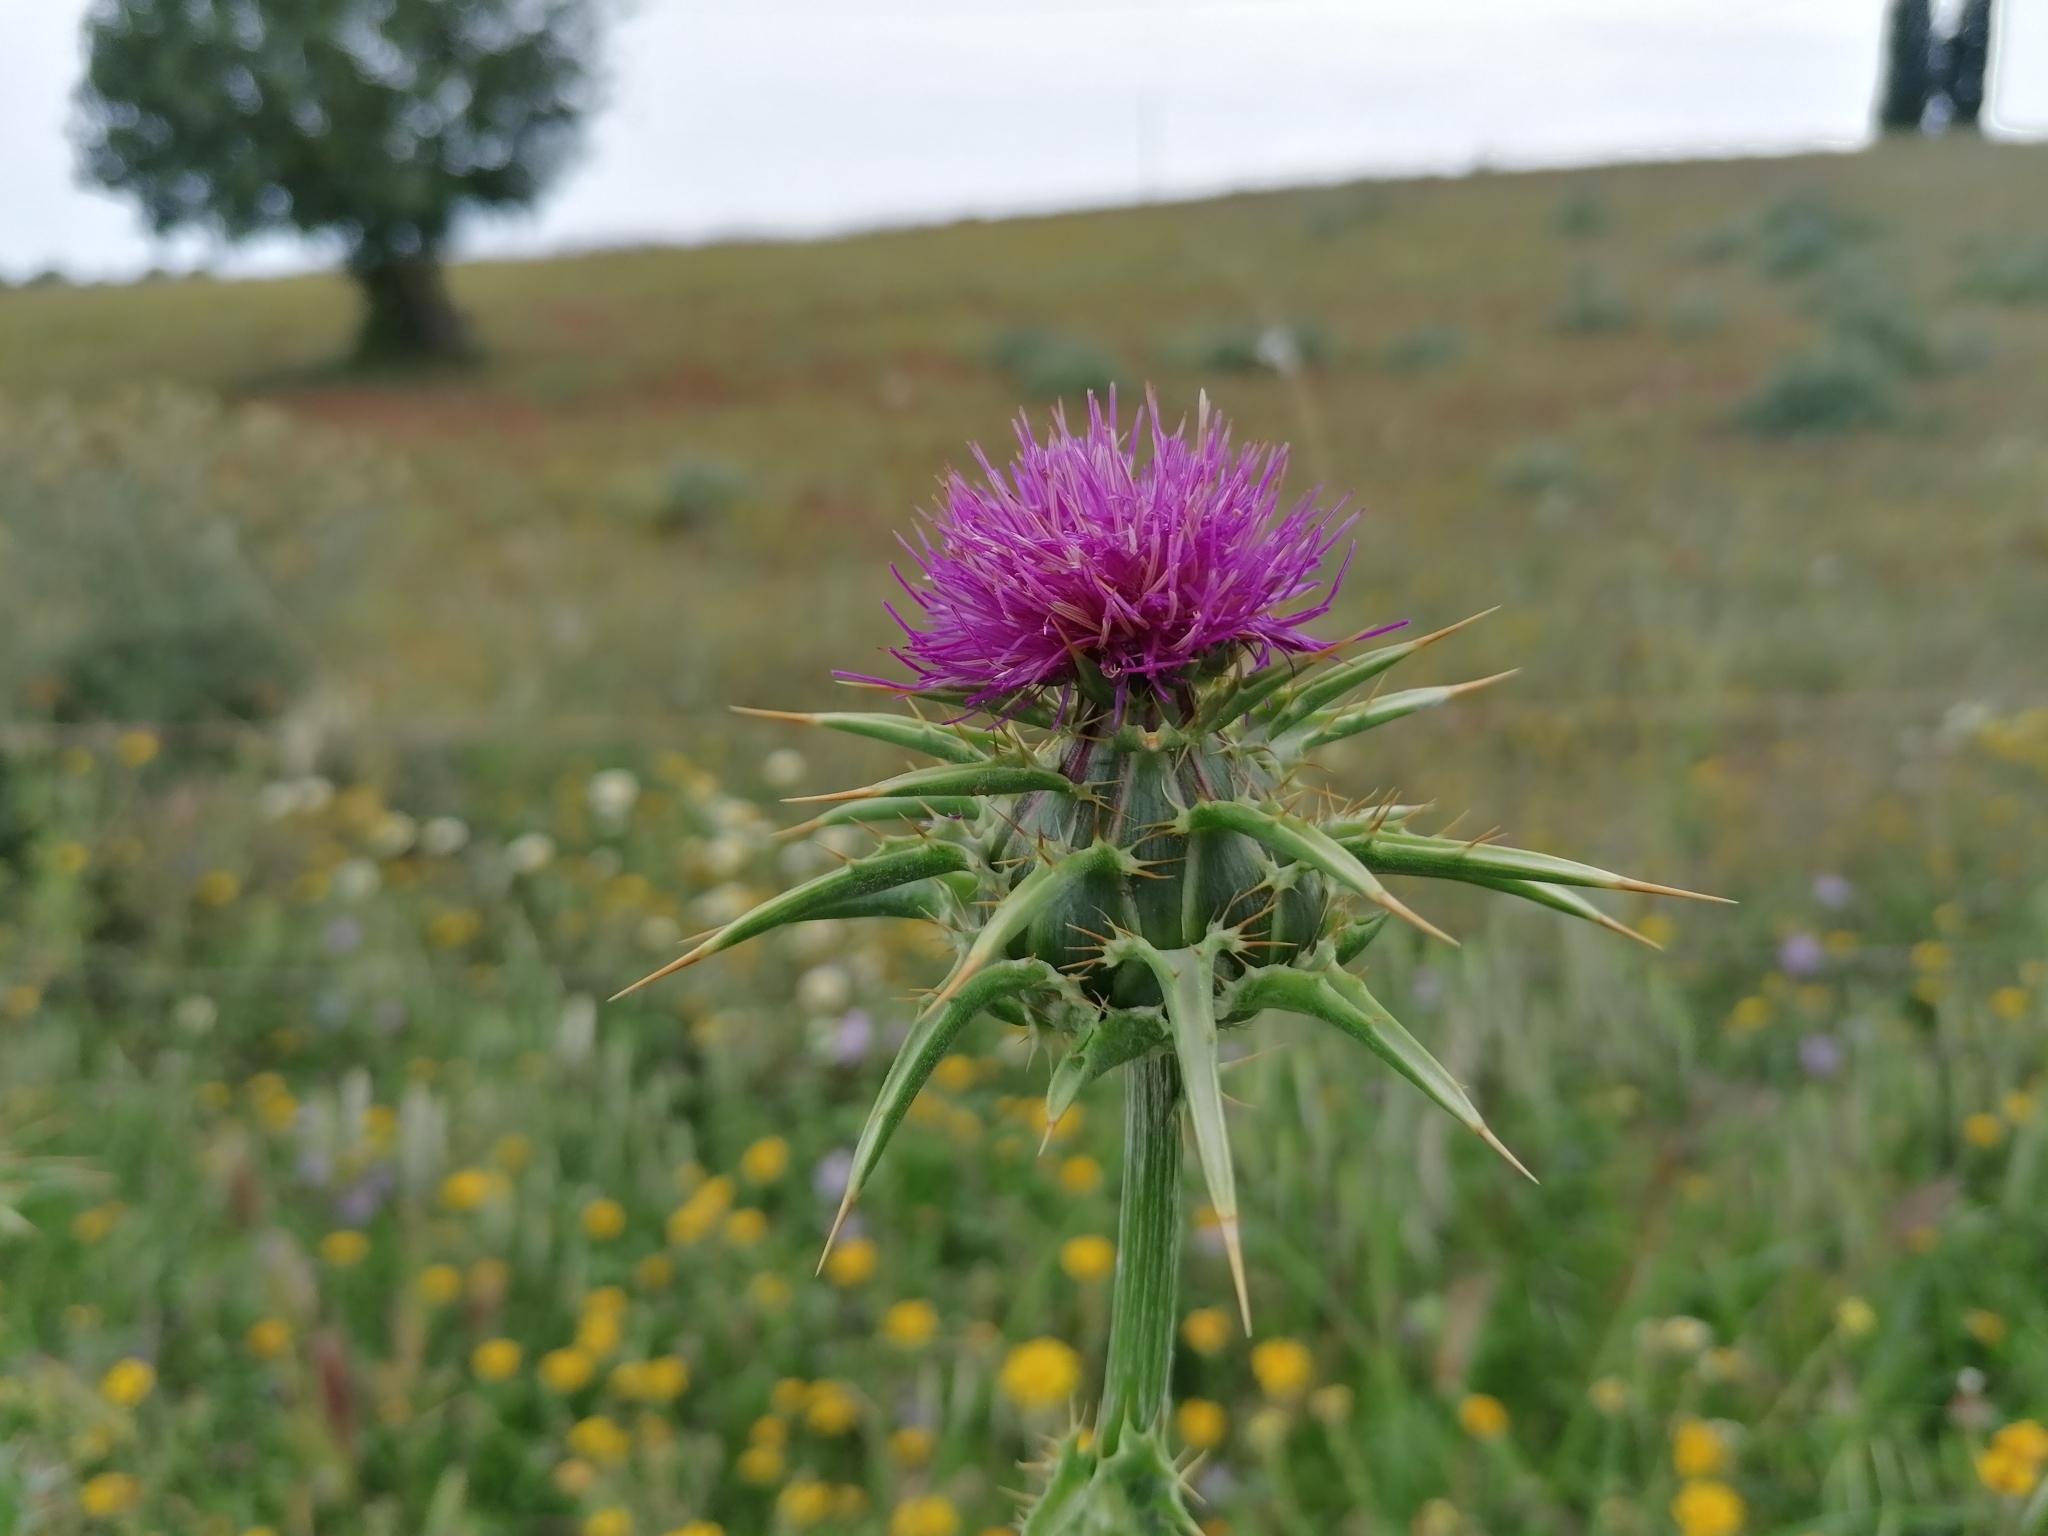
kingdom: Plantae
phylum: Tracheophyta
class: Magnoliopsida
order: Asterales
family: Asteraceae
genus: Silybum
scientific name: Silybum marianum
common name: Milk thistle
